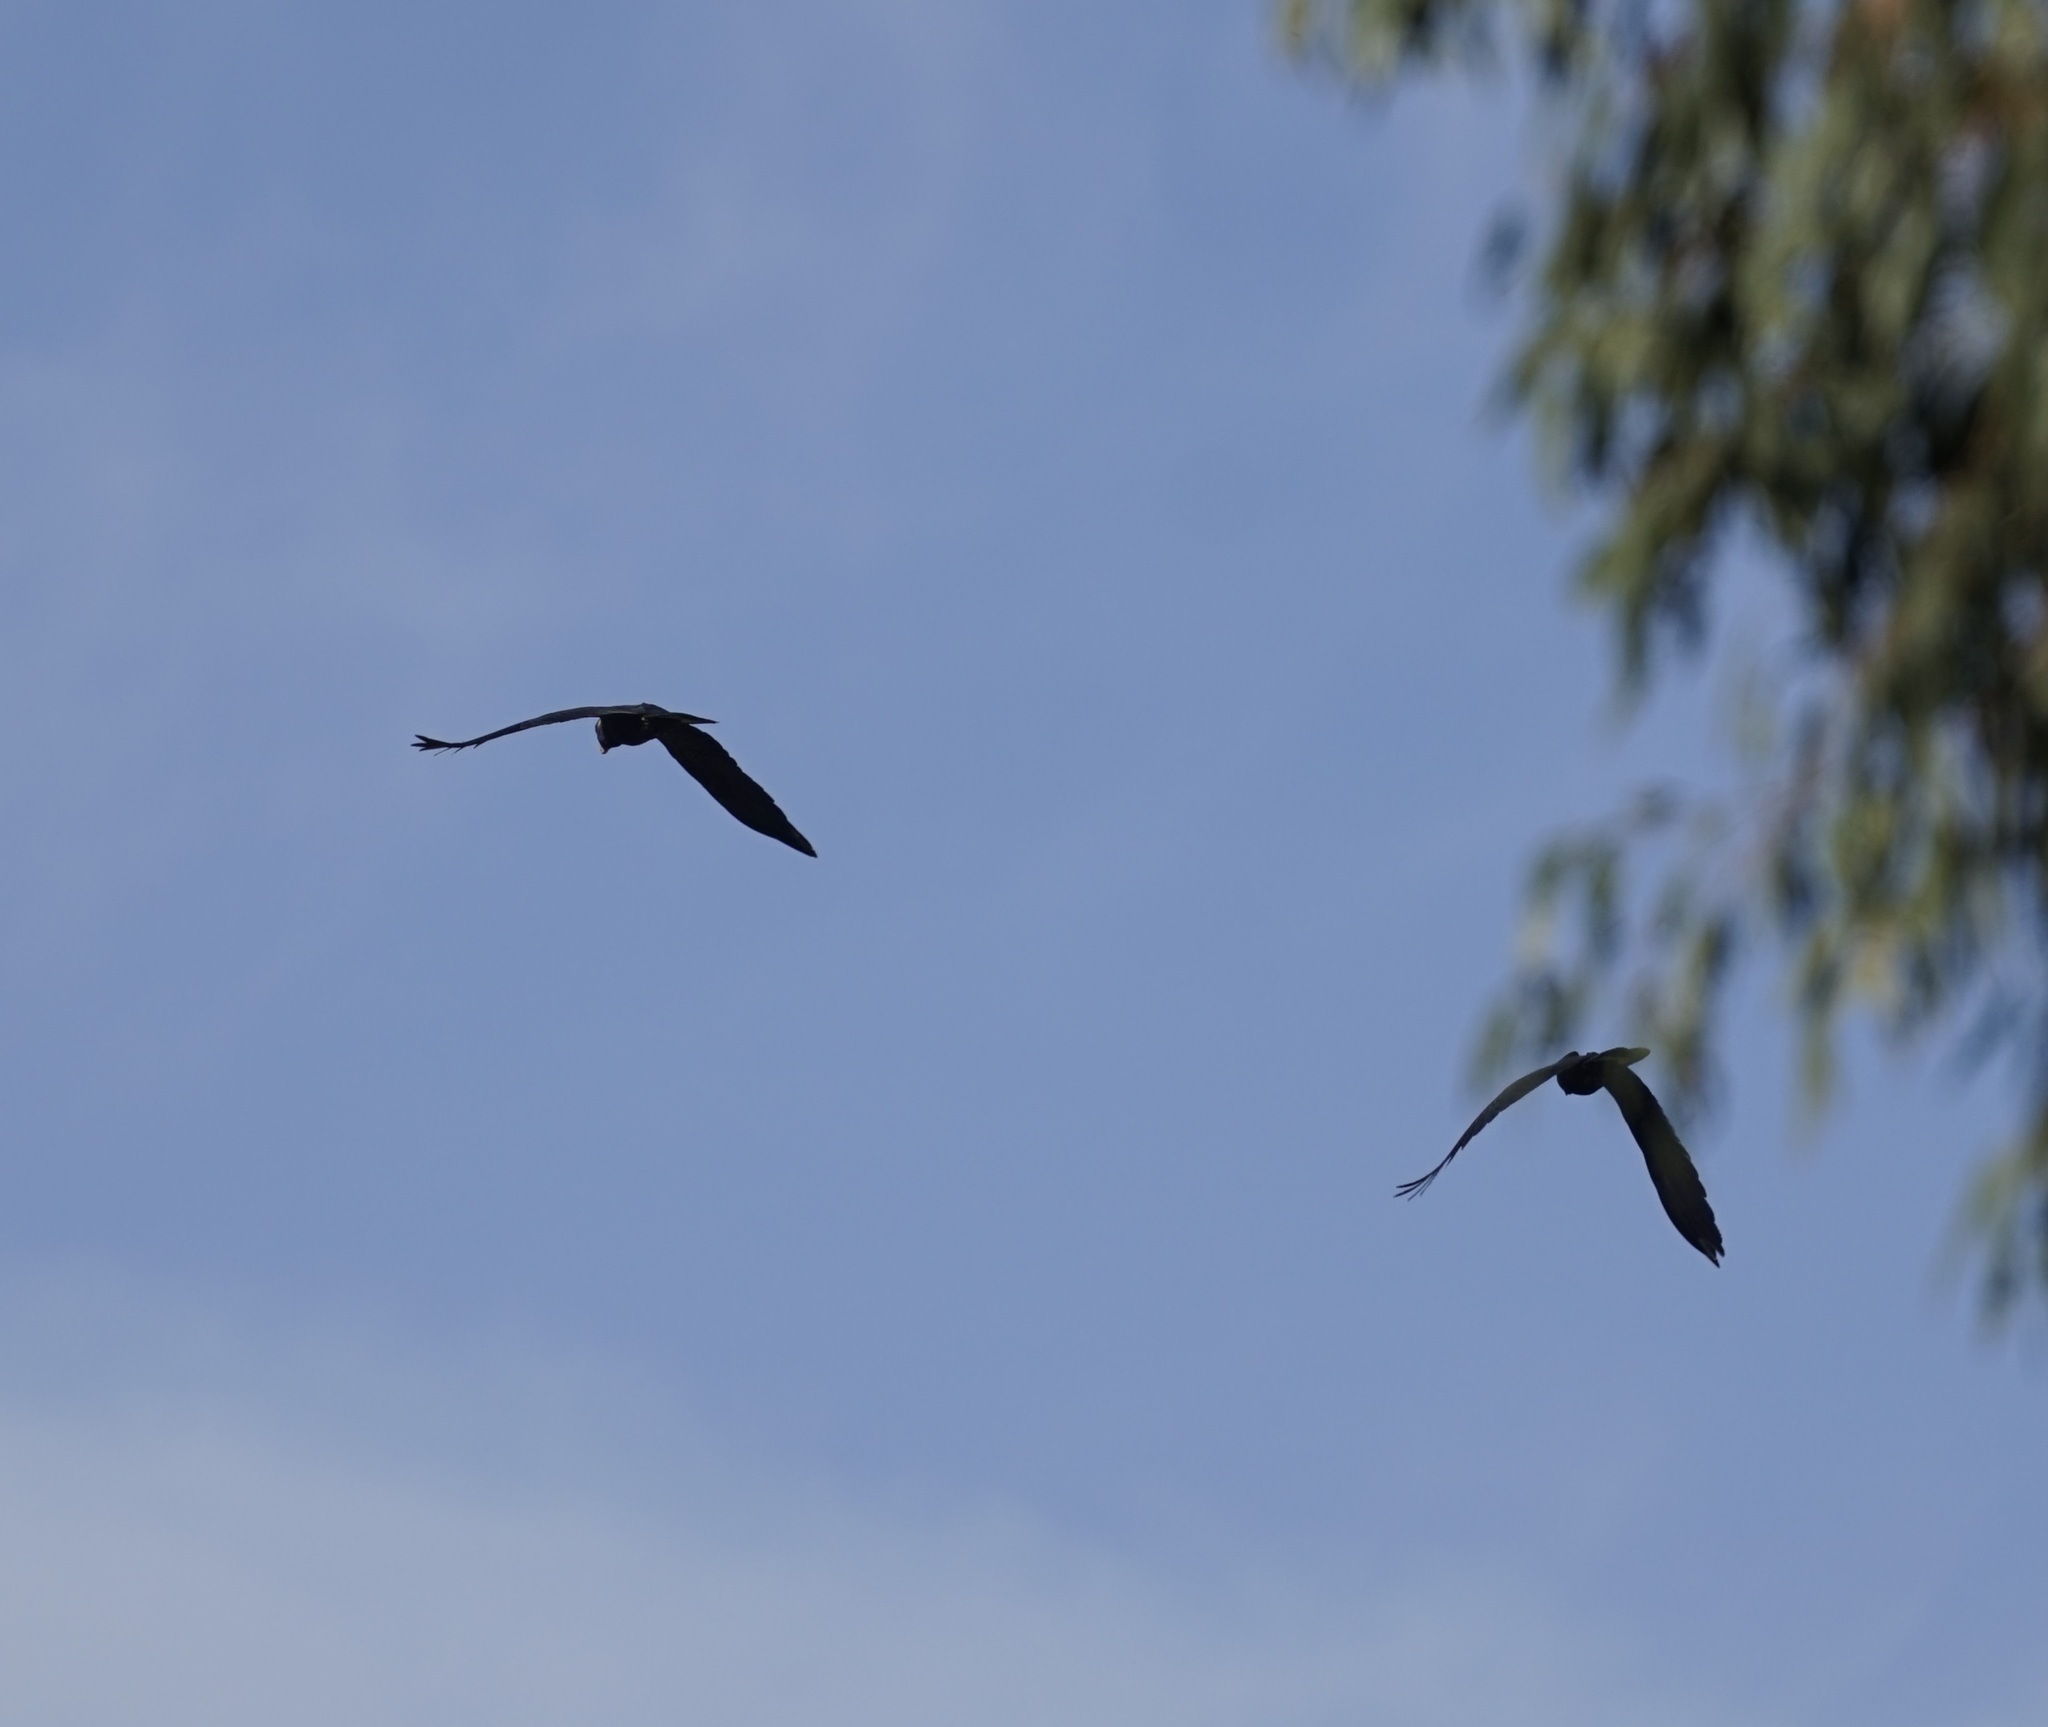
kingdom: Animalia
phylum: Chordata
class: Aves
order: Psittaciformes
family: Cacatuidae
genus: Zanda
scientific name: Zanda funerea
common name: Yellow-tailed black-cockatoo
